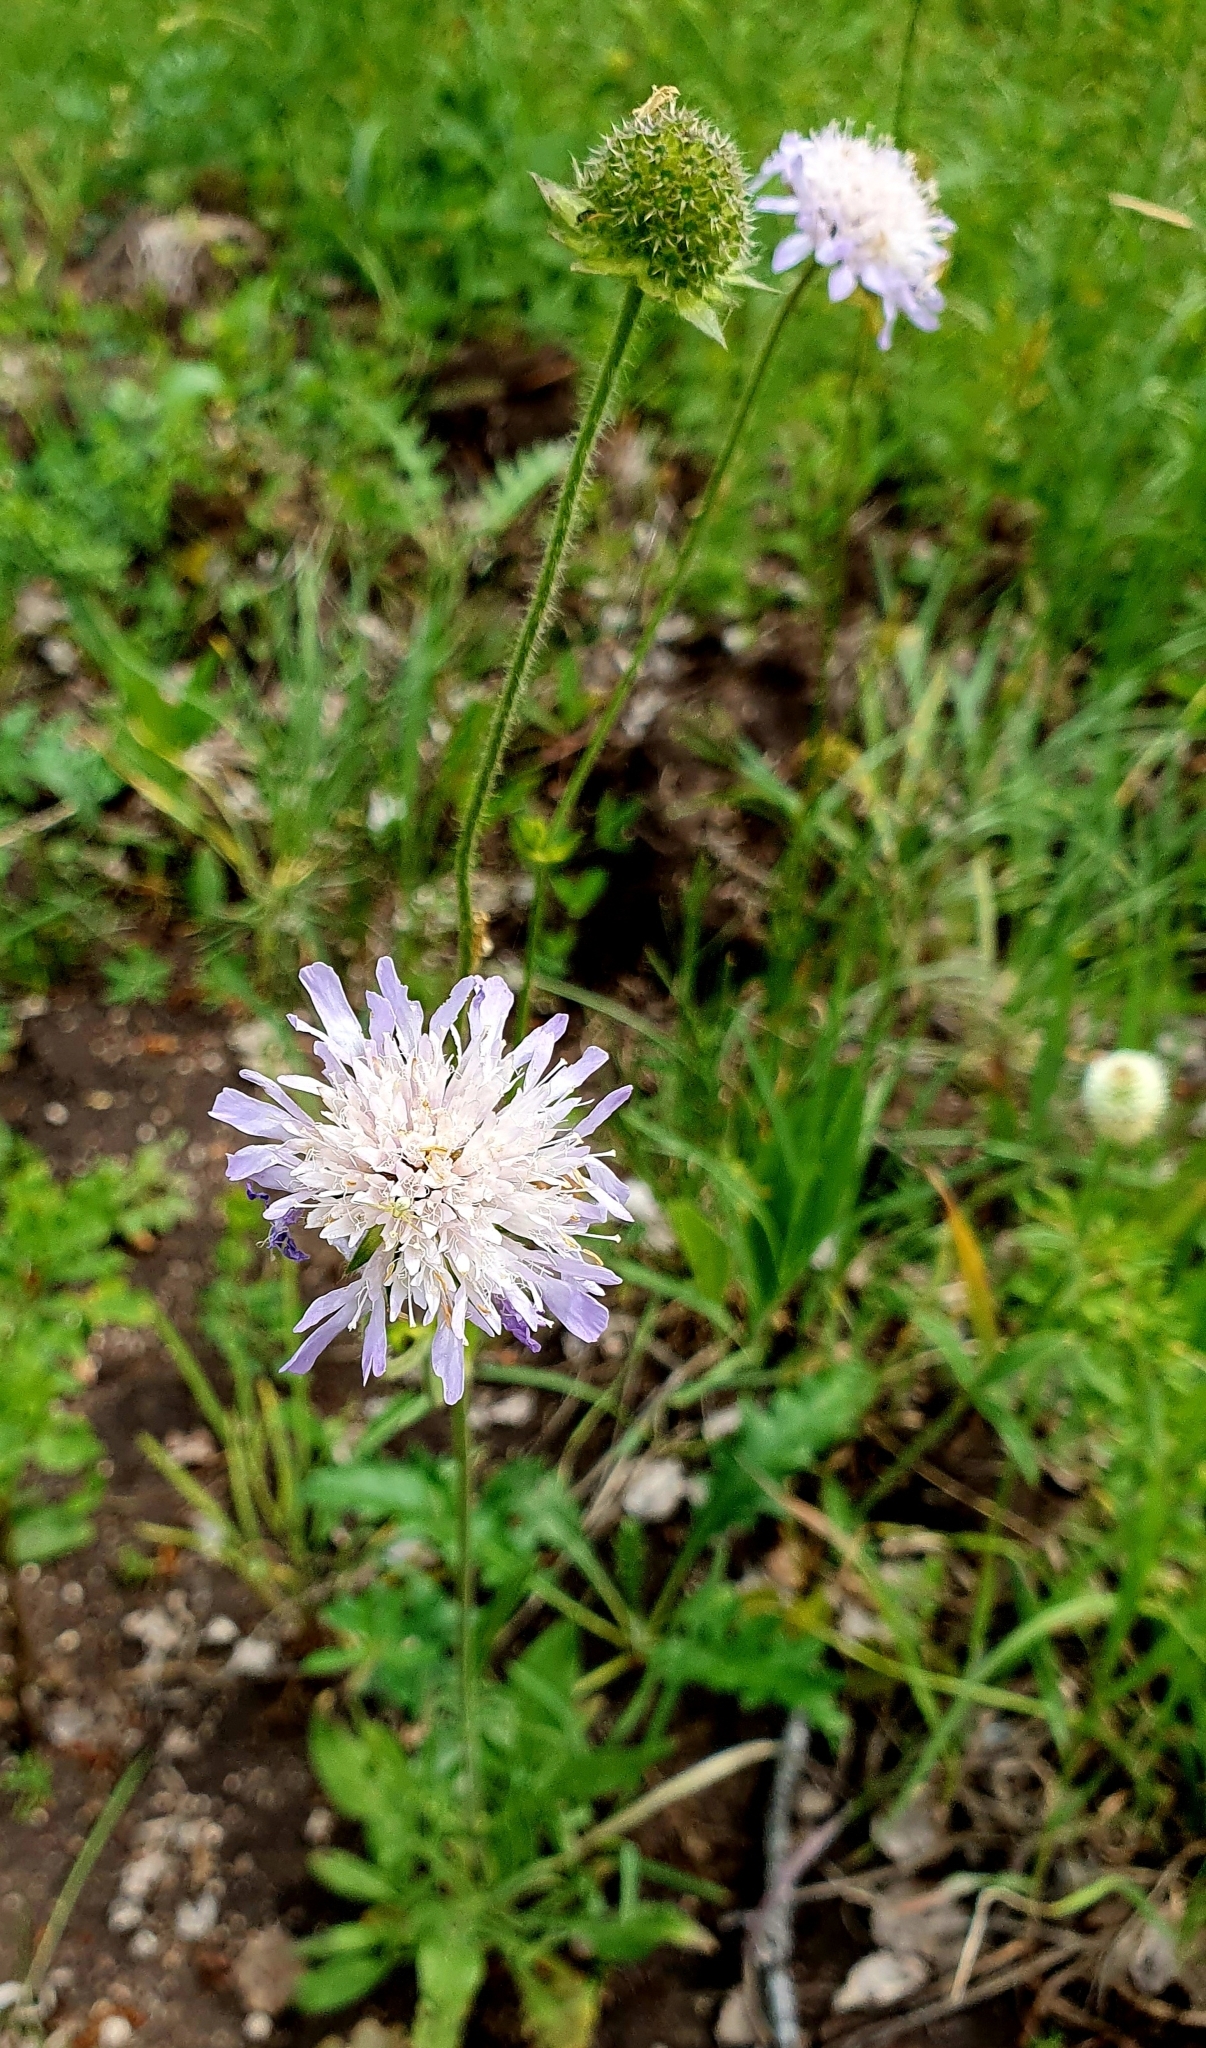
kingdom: Plantae
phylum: Tracheophyta
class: Magnoliopsida
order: Dipsacales
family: Caprifoliaceae
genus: Knautia
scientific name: Knautia arvensis
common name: Field scabiosa
